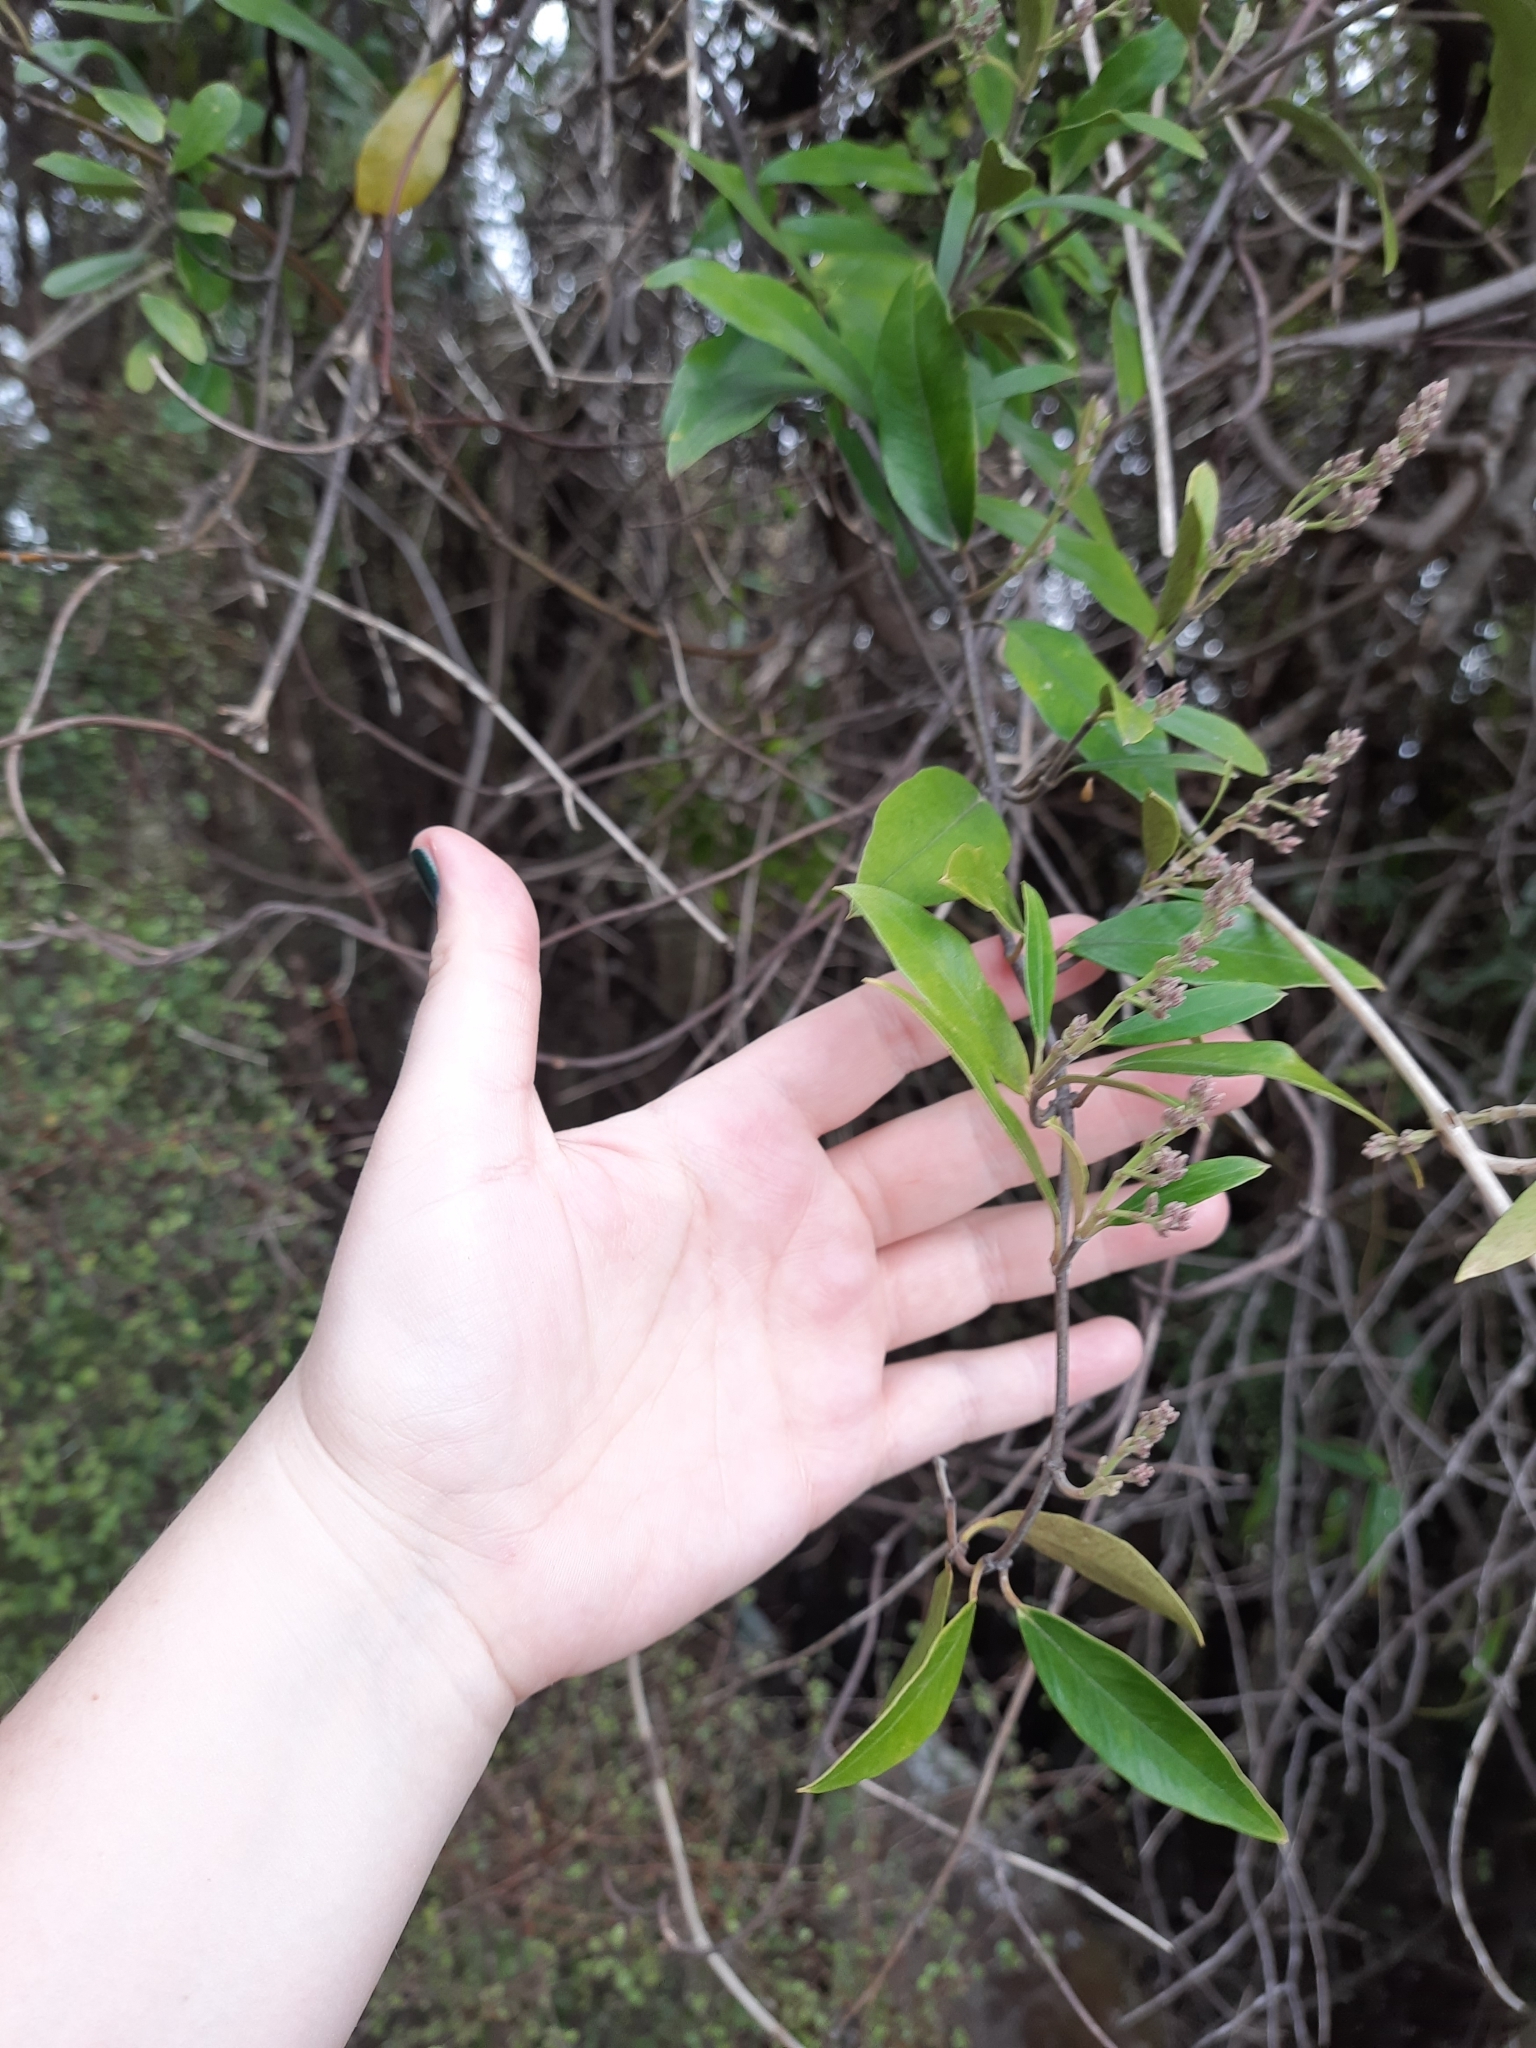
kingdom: Plantae
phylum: Tracheophyta
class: Magnoliopsida
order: Gentianales
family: Apocynaceae
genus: Parsonsia
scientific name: Parsonsia heterophylla
